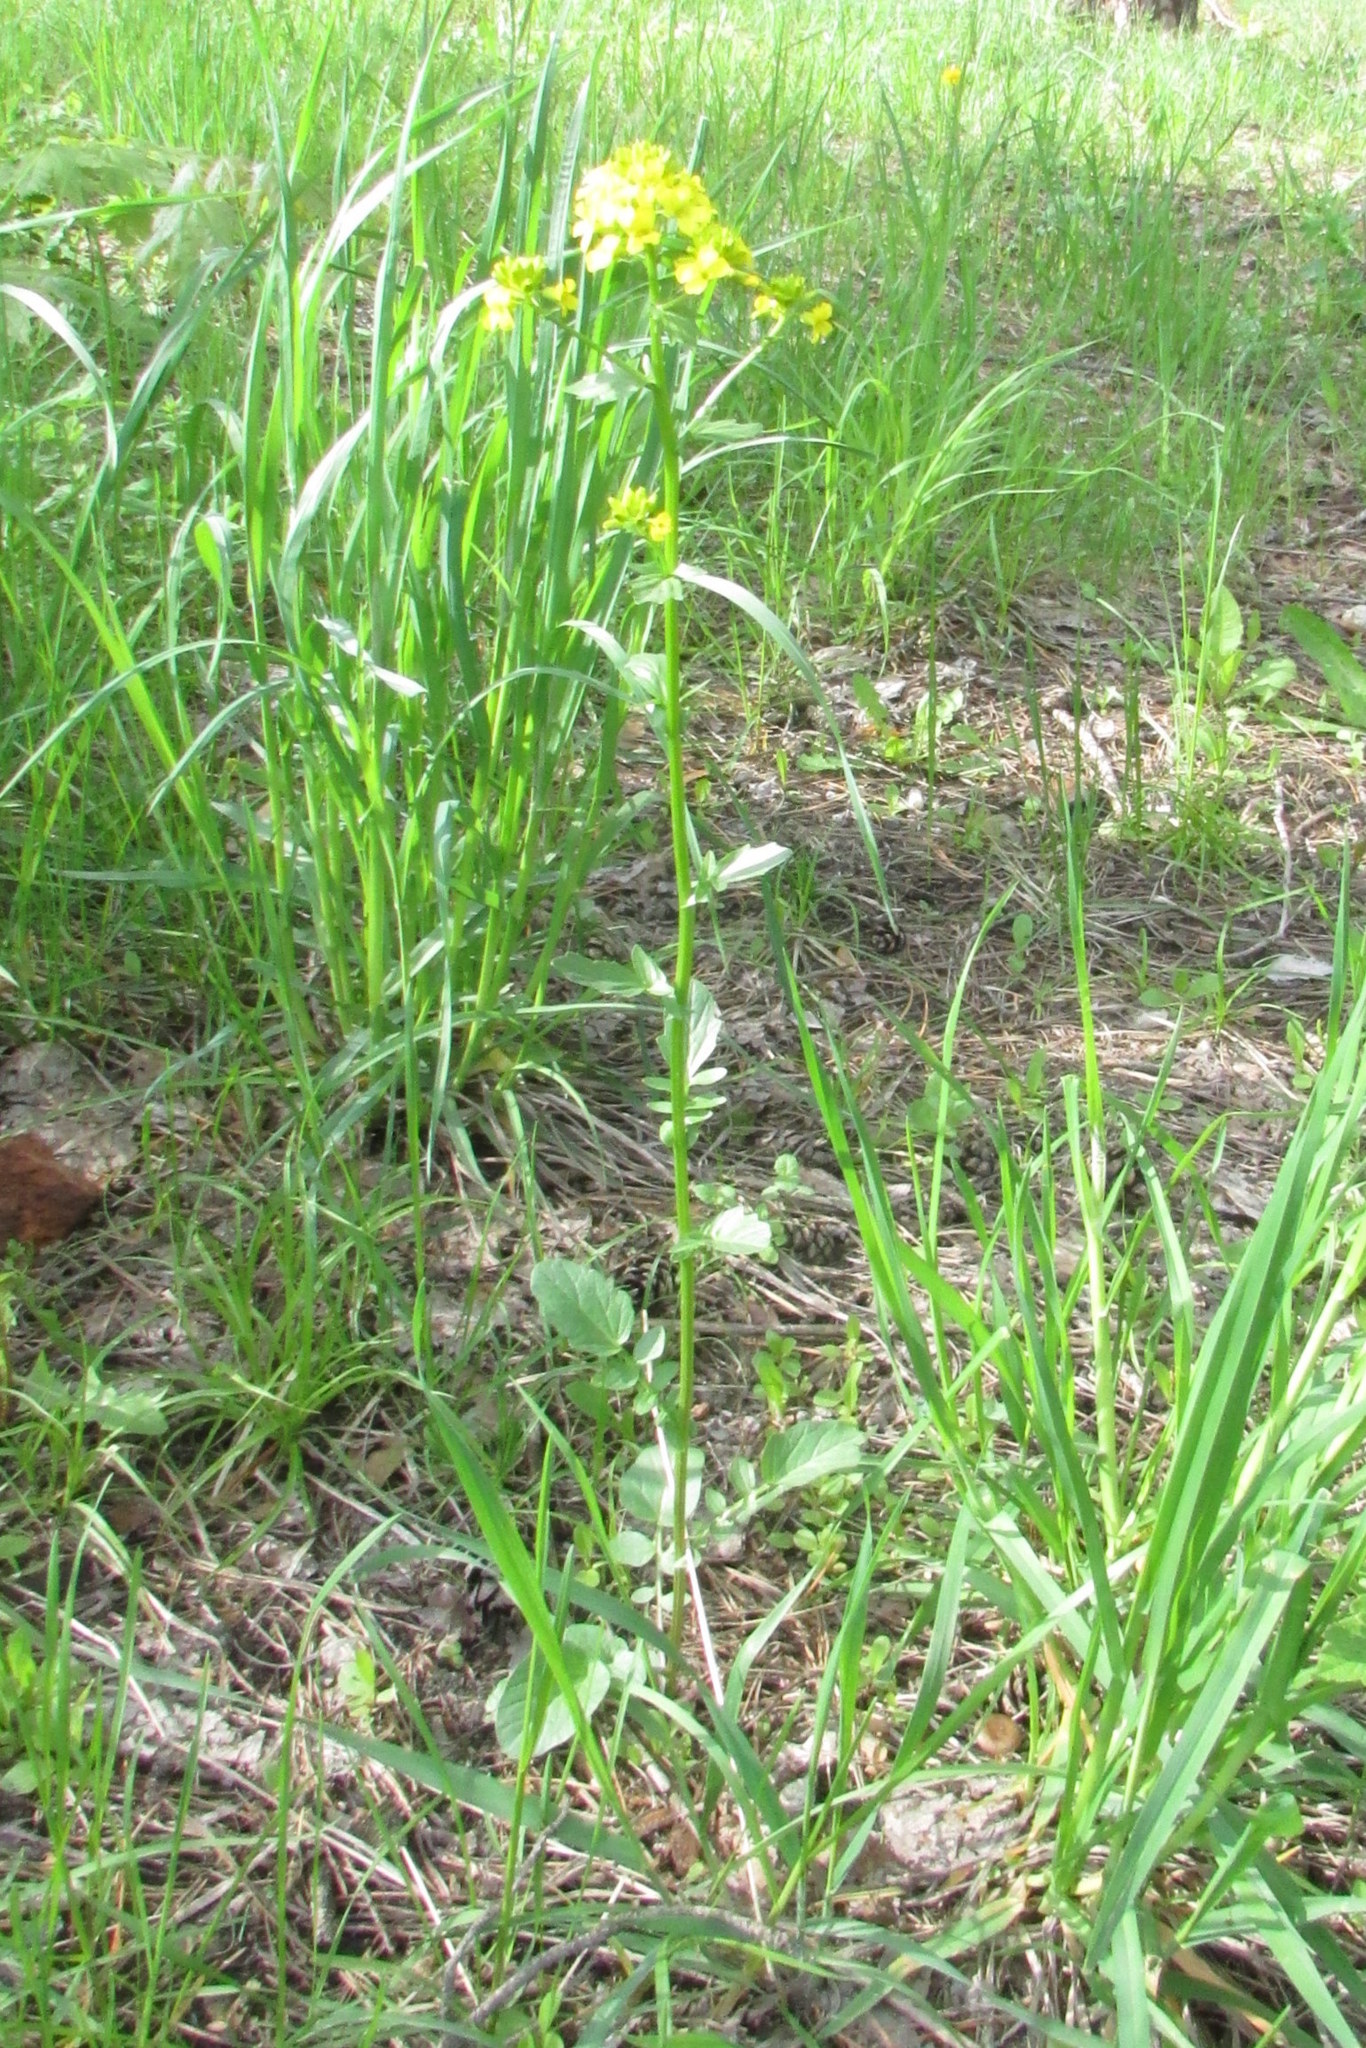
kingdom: Plantae
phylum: Tracheophyta
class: Magnoliopsida
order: Brassicales
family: Brassicaceae
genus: Barbarea
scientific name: Barbarea vulgaris
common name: Cressy-greens
